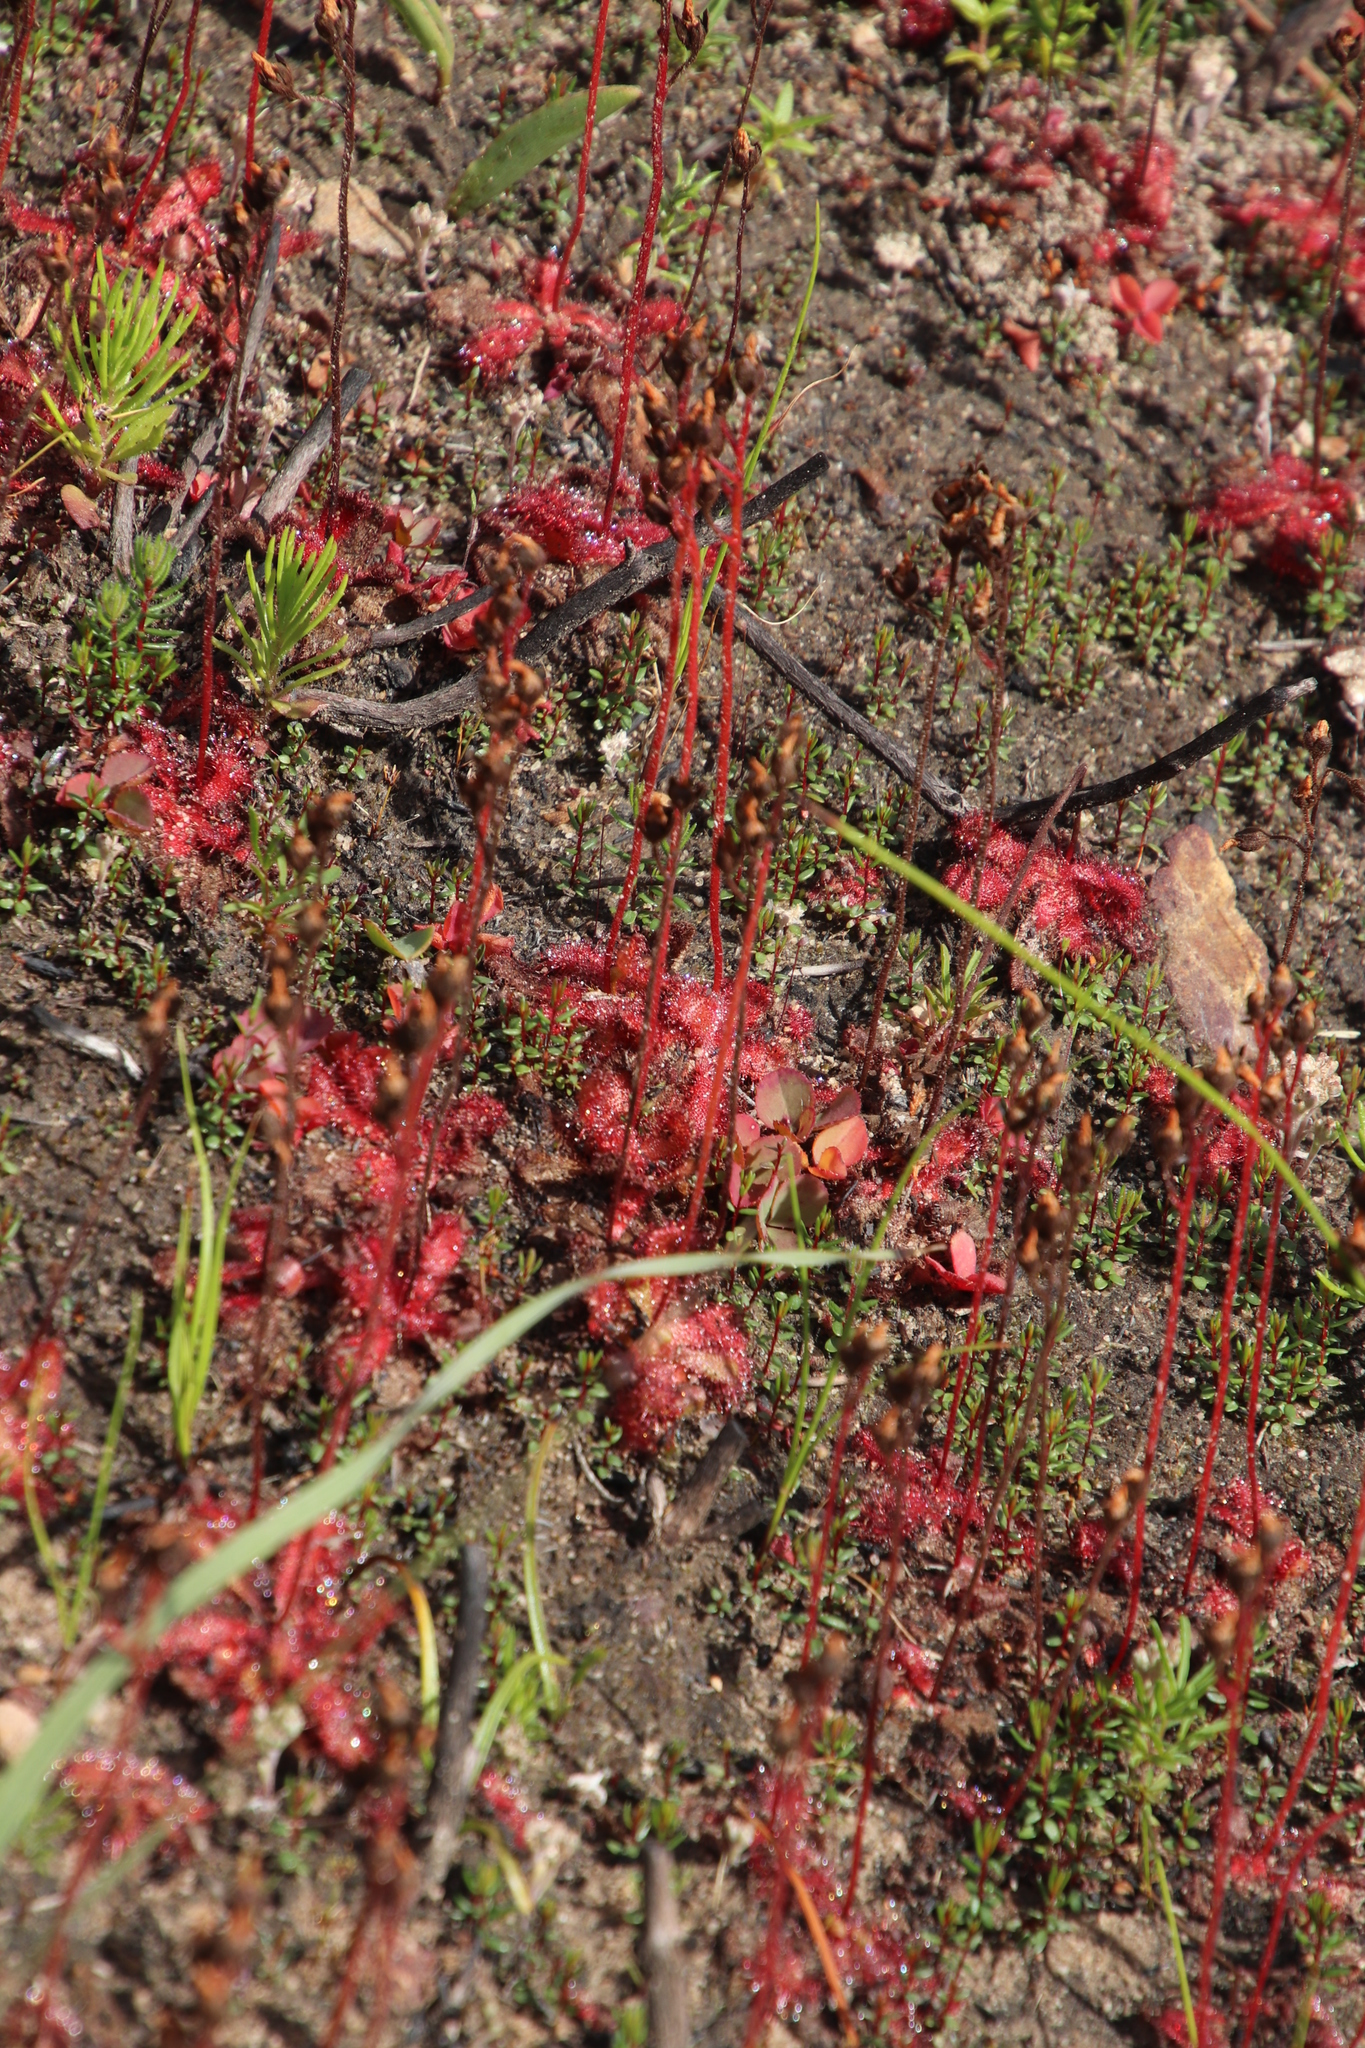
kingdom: Plantae
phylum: Tracheophyta
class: Magnoliopsida
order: Caryophyllales
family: Droseraceae
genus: Drosera
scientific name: Drosera trinervia
